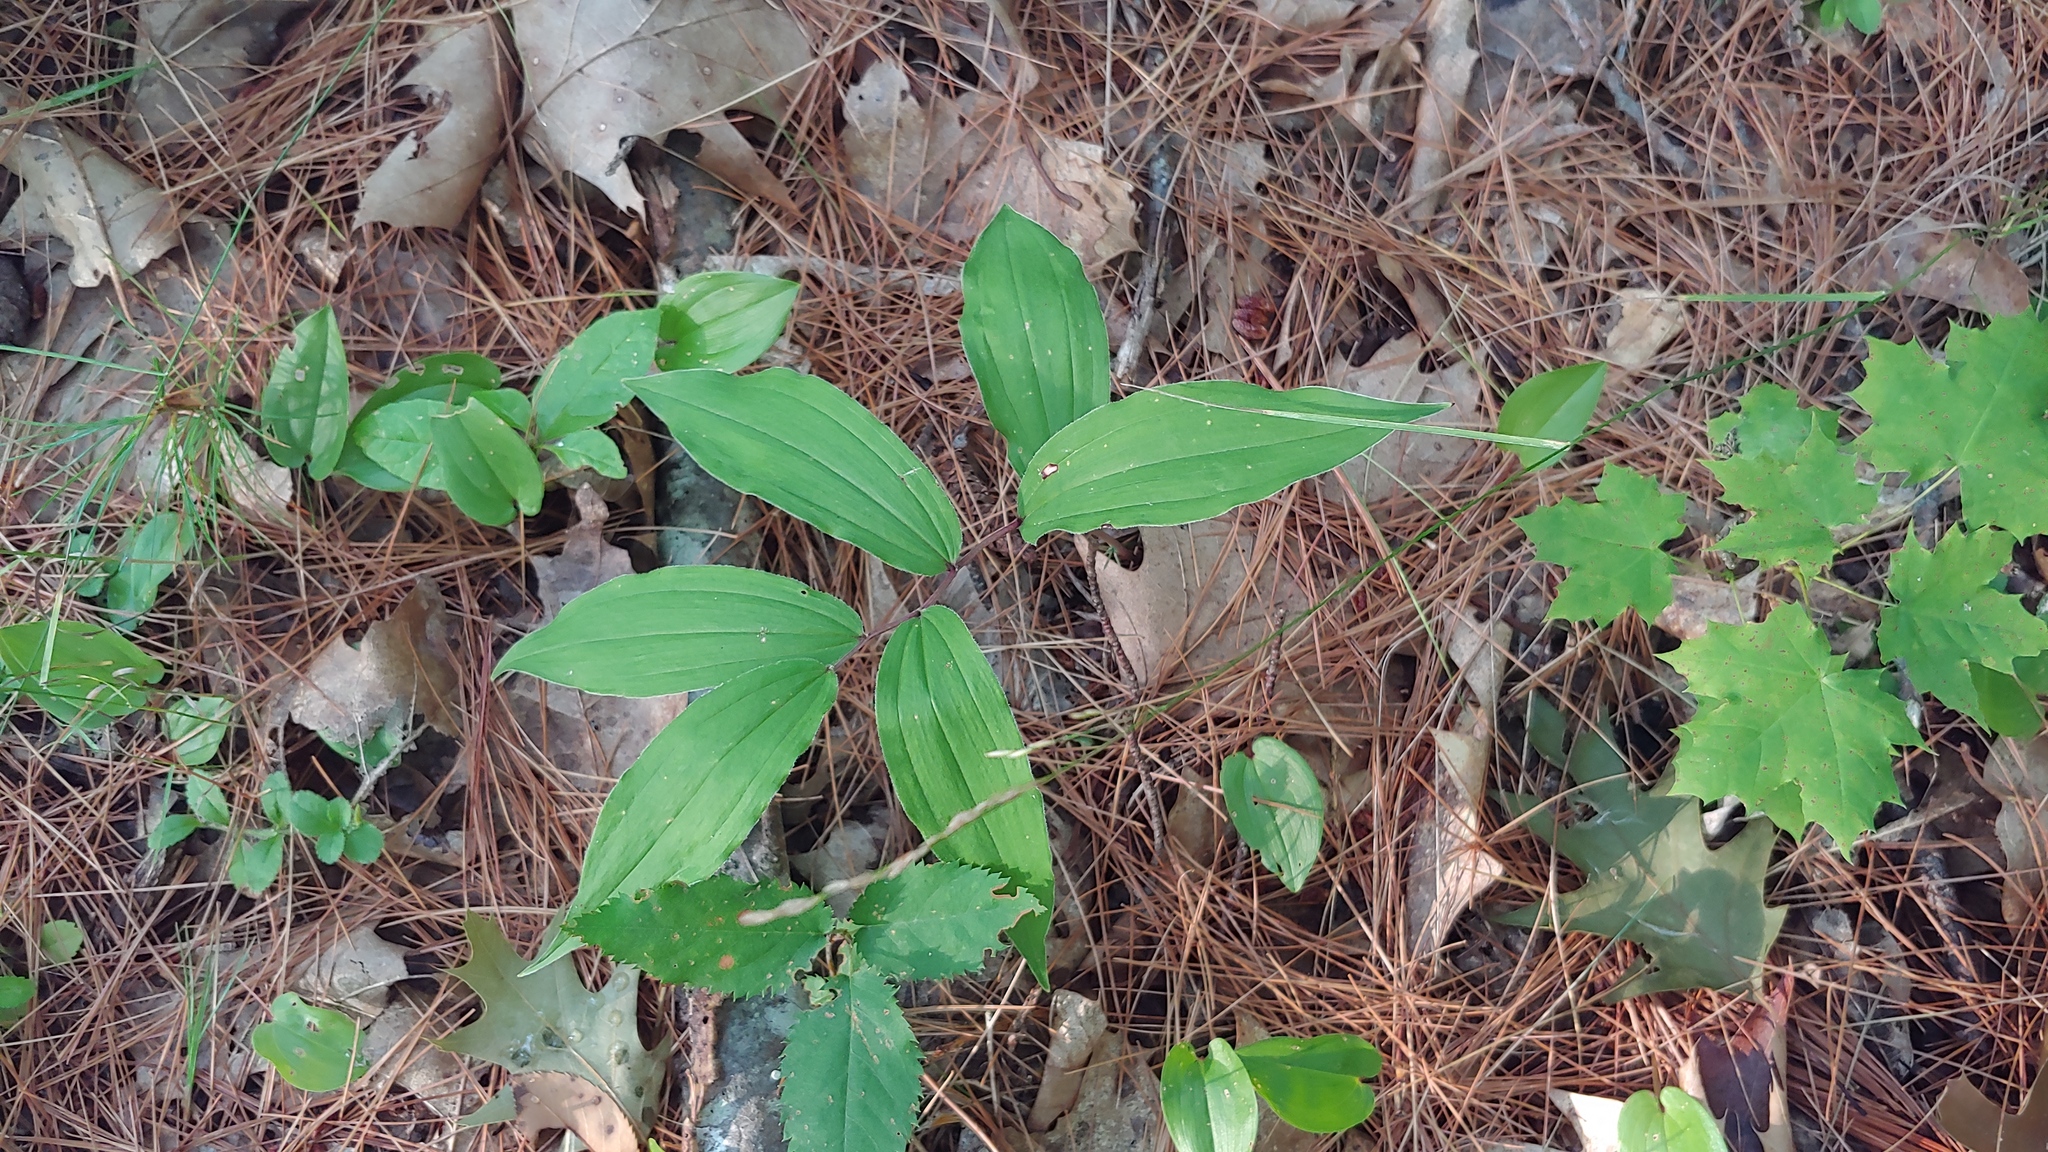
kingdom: Plantae
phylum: Tracheophyta
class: Liliopsida
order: Asparagales
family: Asparagaceae
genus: Maianthemum
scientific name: Maianthemum racemosum
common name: False spikenard
